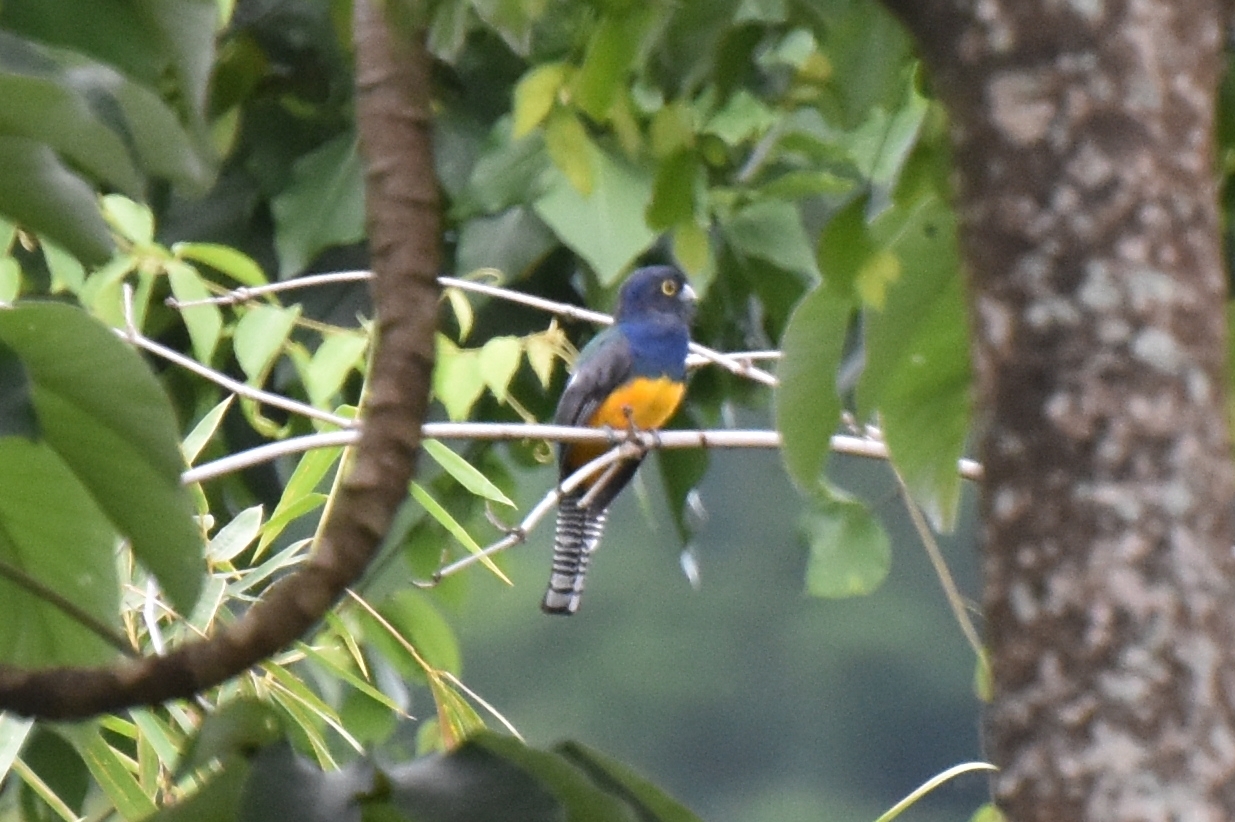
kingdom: Animalia
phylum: Chordata
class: Aves
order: Trogoniformes
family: Trogonidae
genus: Trogon
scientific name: Trogon violaceus
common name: Guianan trogon
